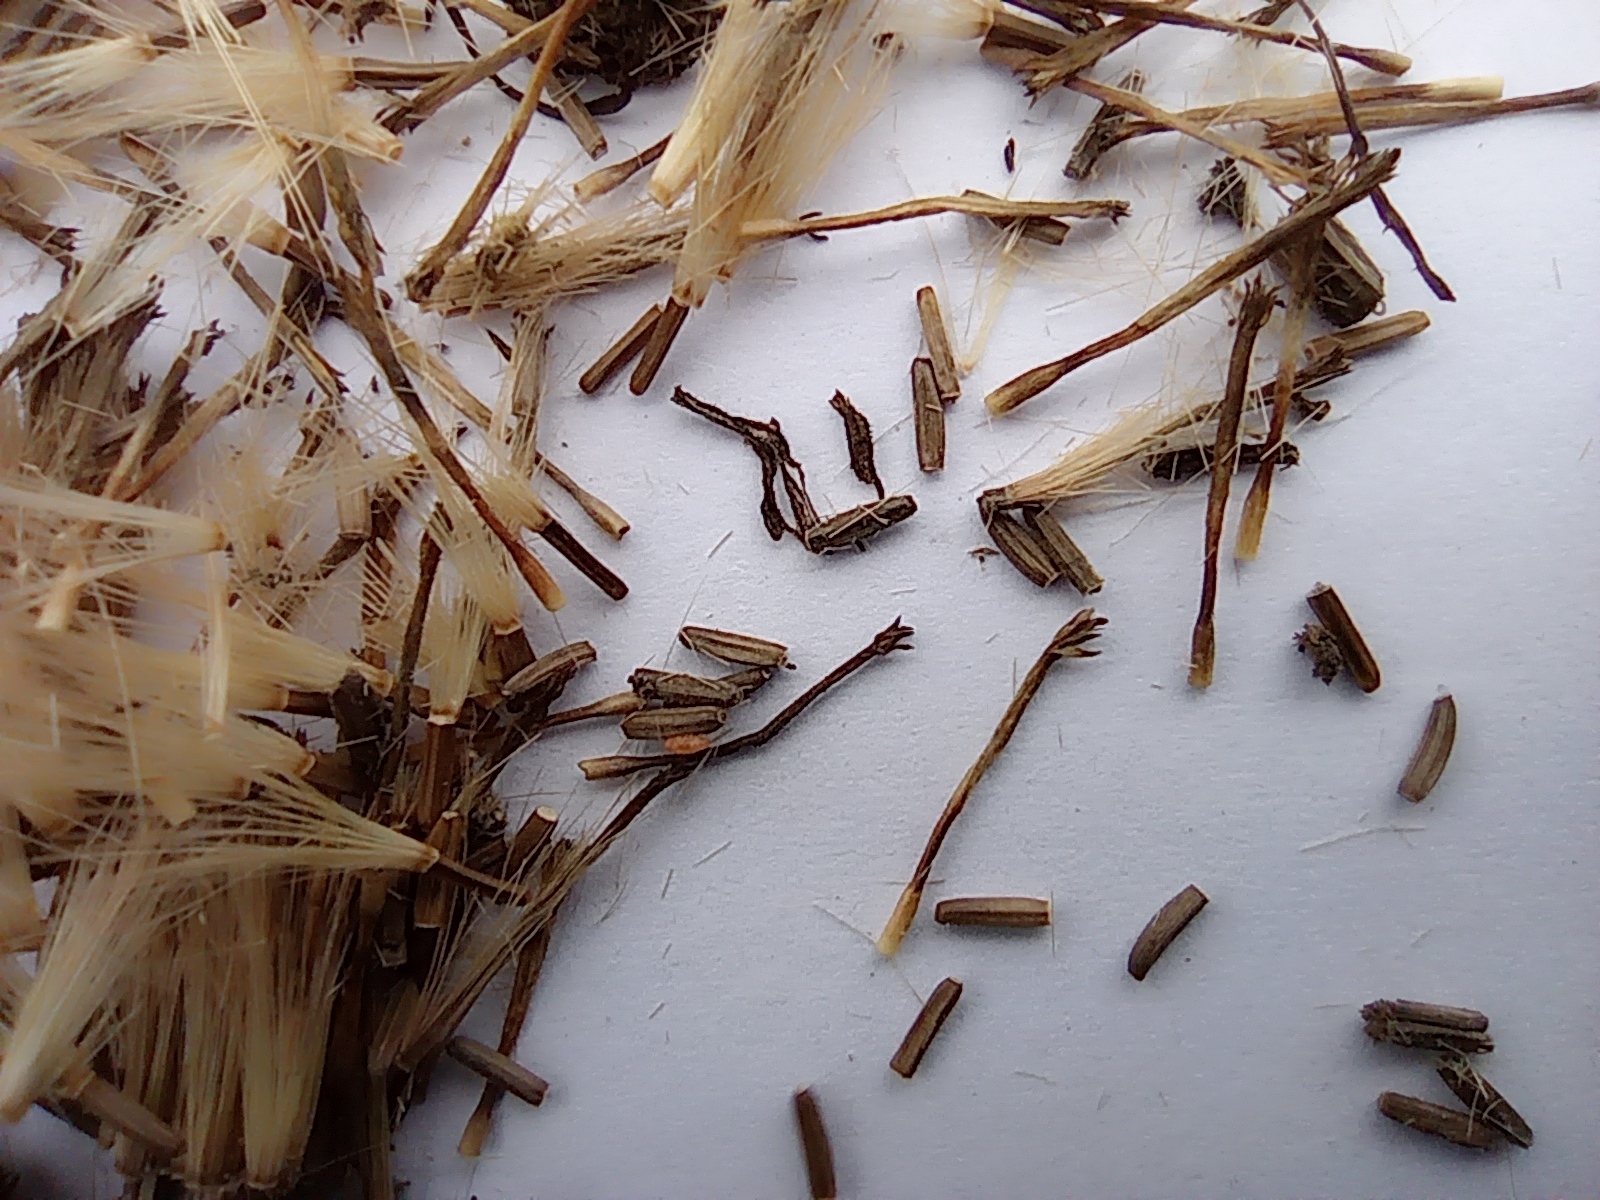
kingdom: Plantae
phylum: Tracheophyta
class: Magnoliopsida
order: Asterales
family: Asteraceae
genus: Inula
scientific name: Inula helenium
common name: Elecampane
